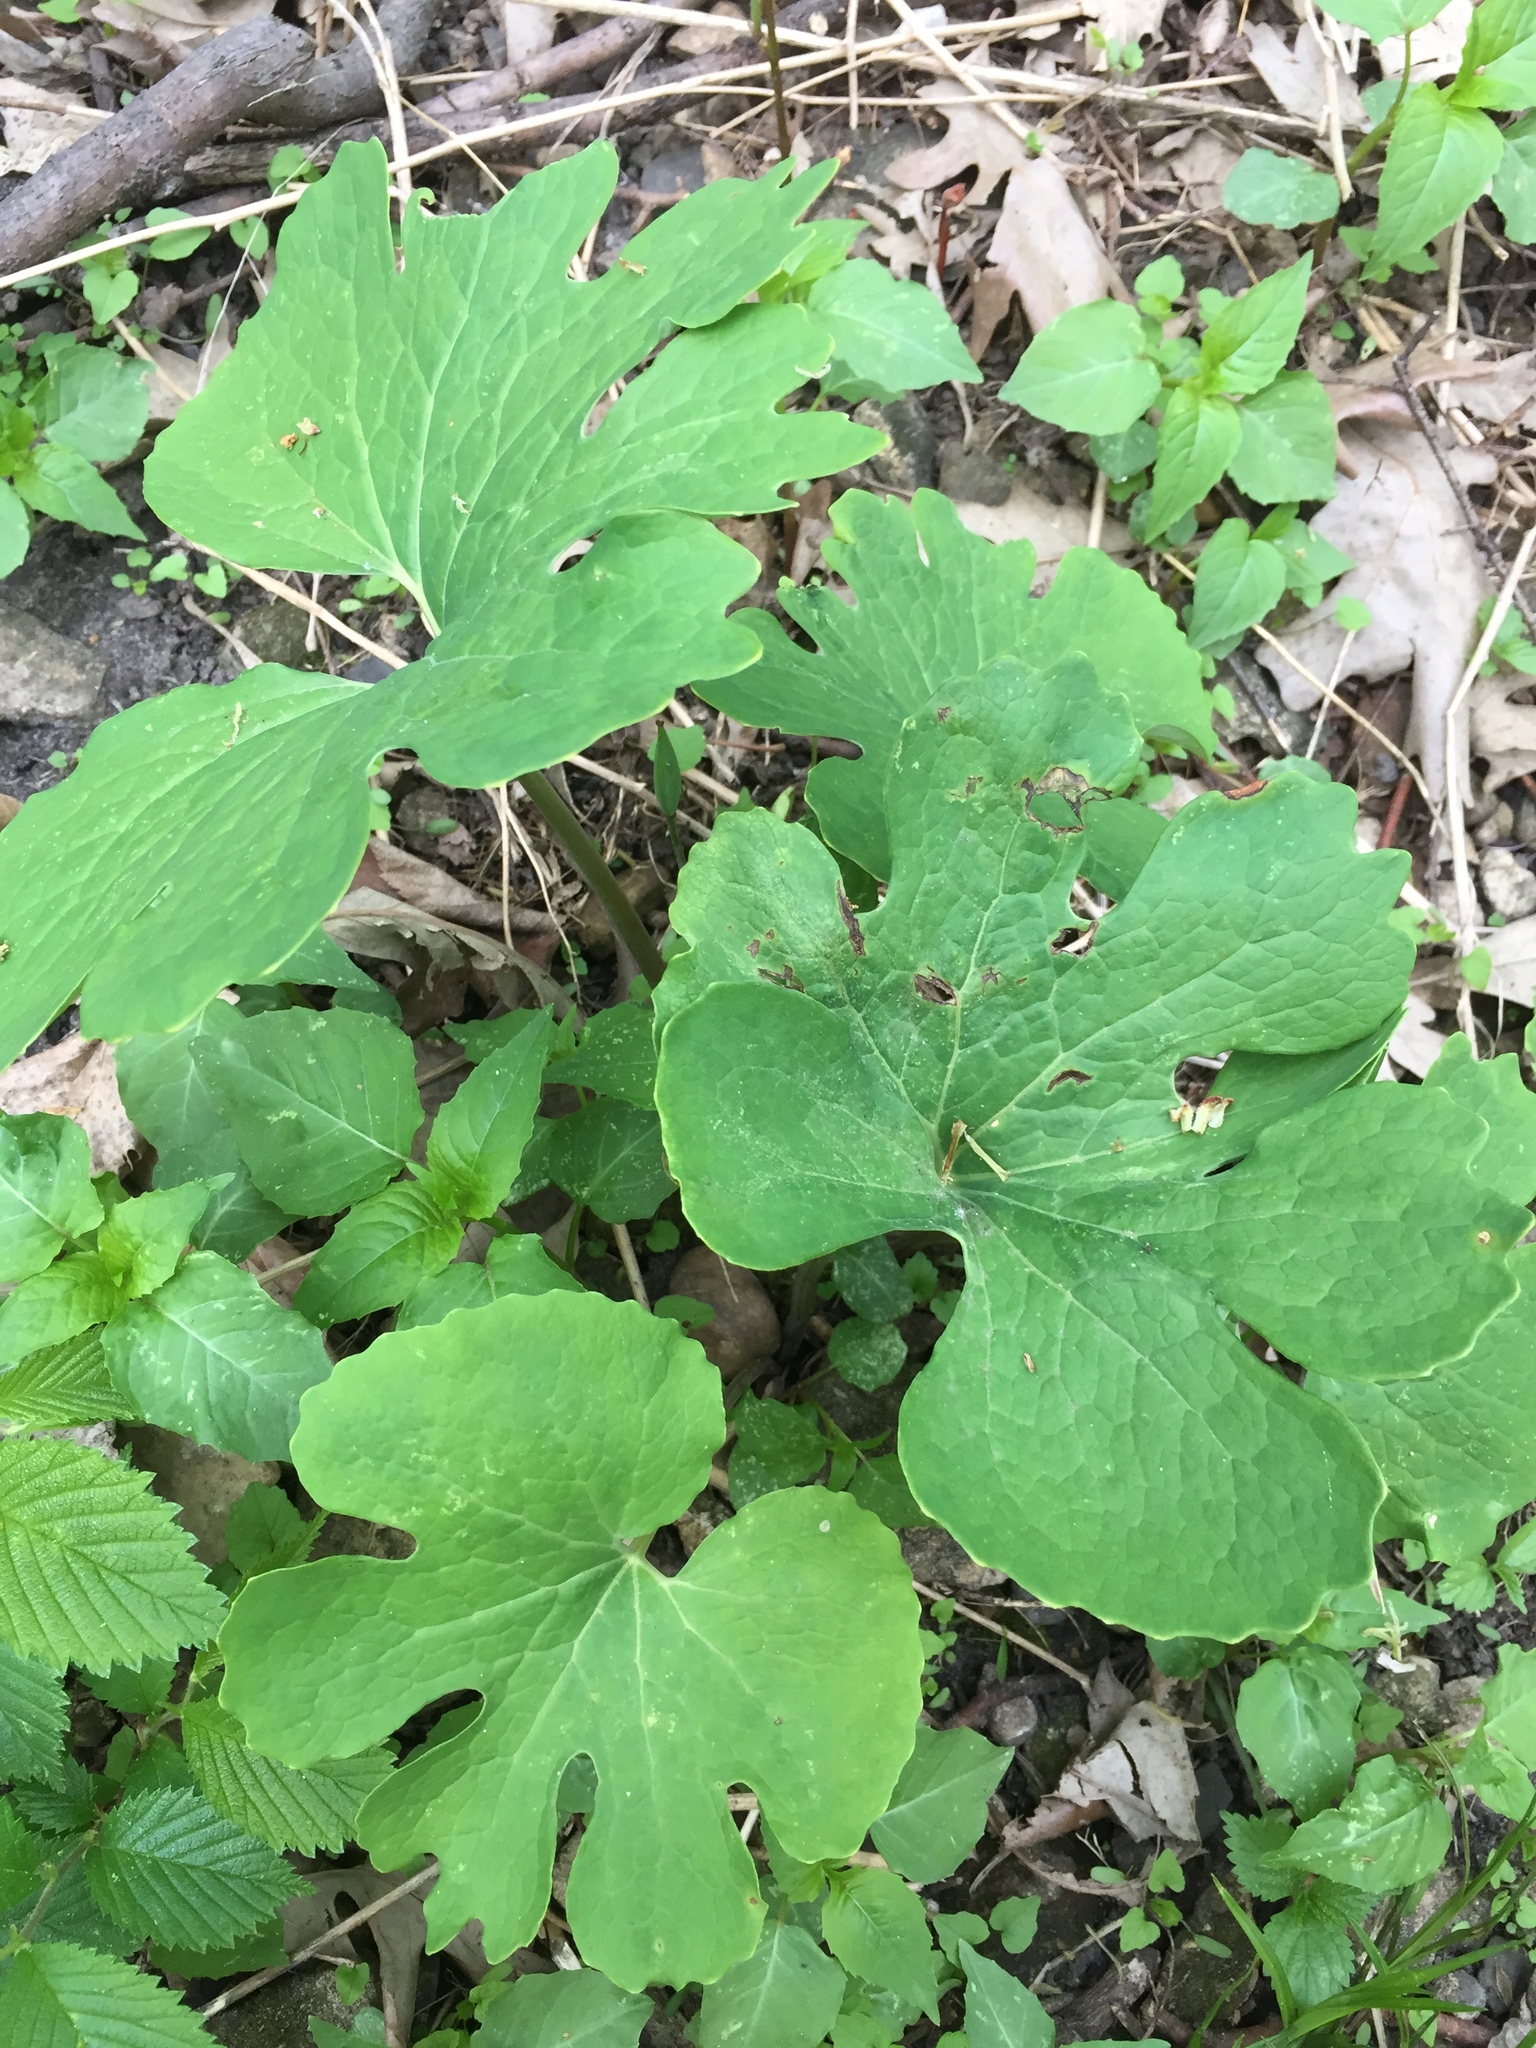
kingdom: Plantae
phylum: Tracheophyta
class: Magnoliopsida
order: Ranunculales
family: Papaveraceae
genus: Sanguinaria
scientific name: Sanguinaria canadensis
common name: Bloodroot
